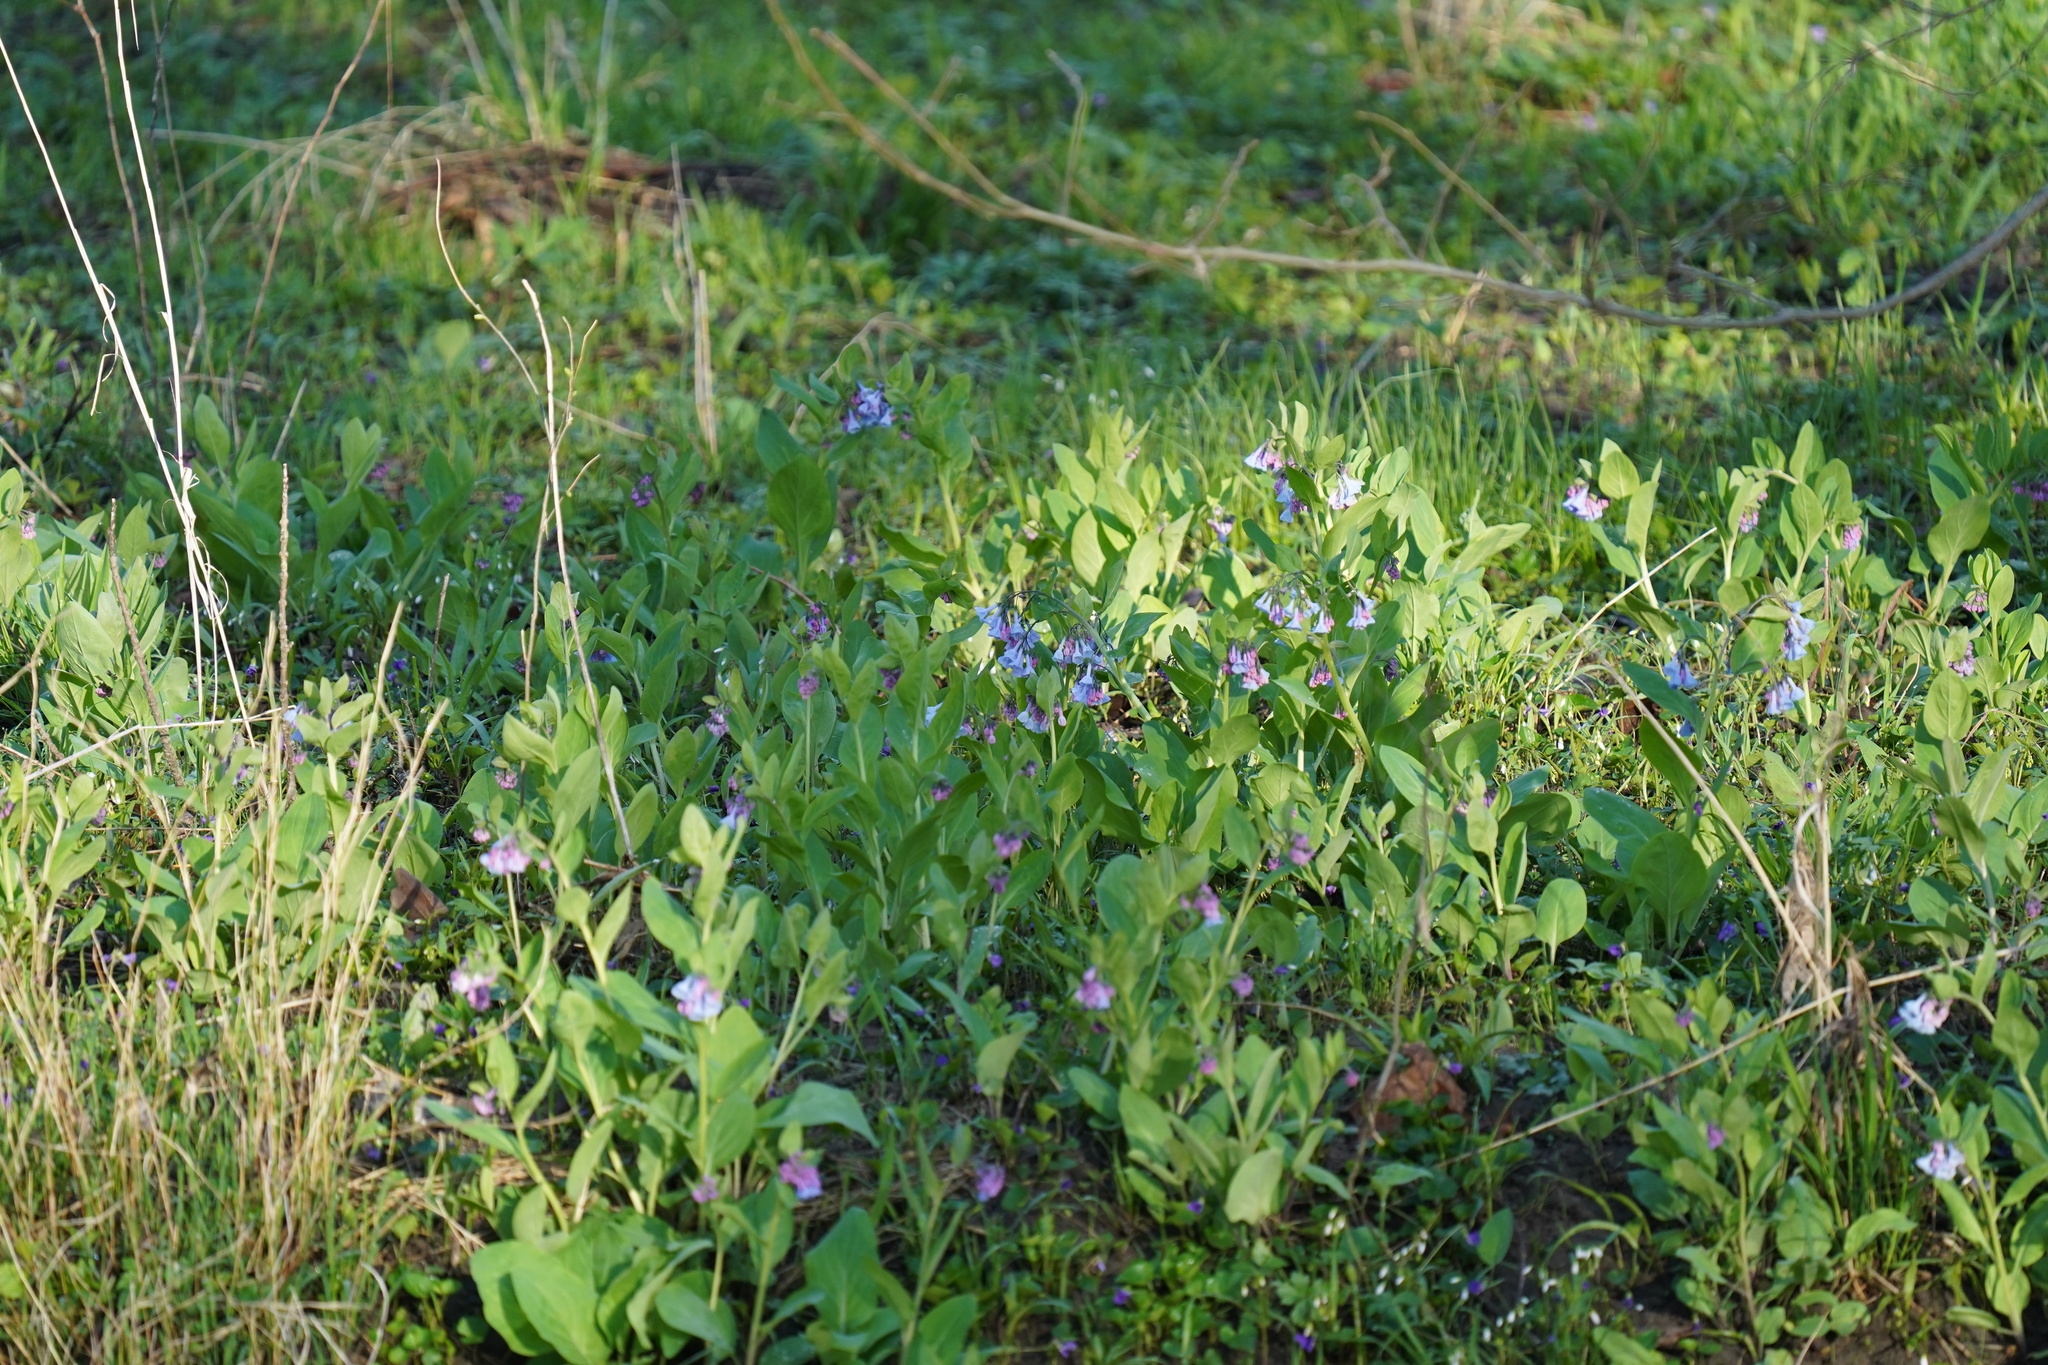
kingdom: Plantae
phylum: Tracheophyta
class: Magnoliopsida
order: Boraginales
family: Boraginaceae
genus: Mertensia
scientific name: Mertensia virginica
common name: Virginia bluebells
